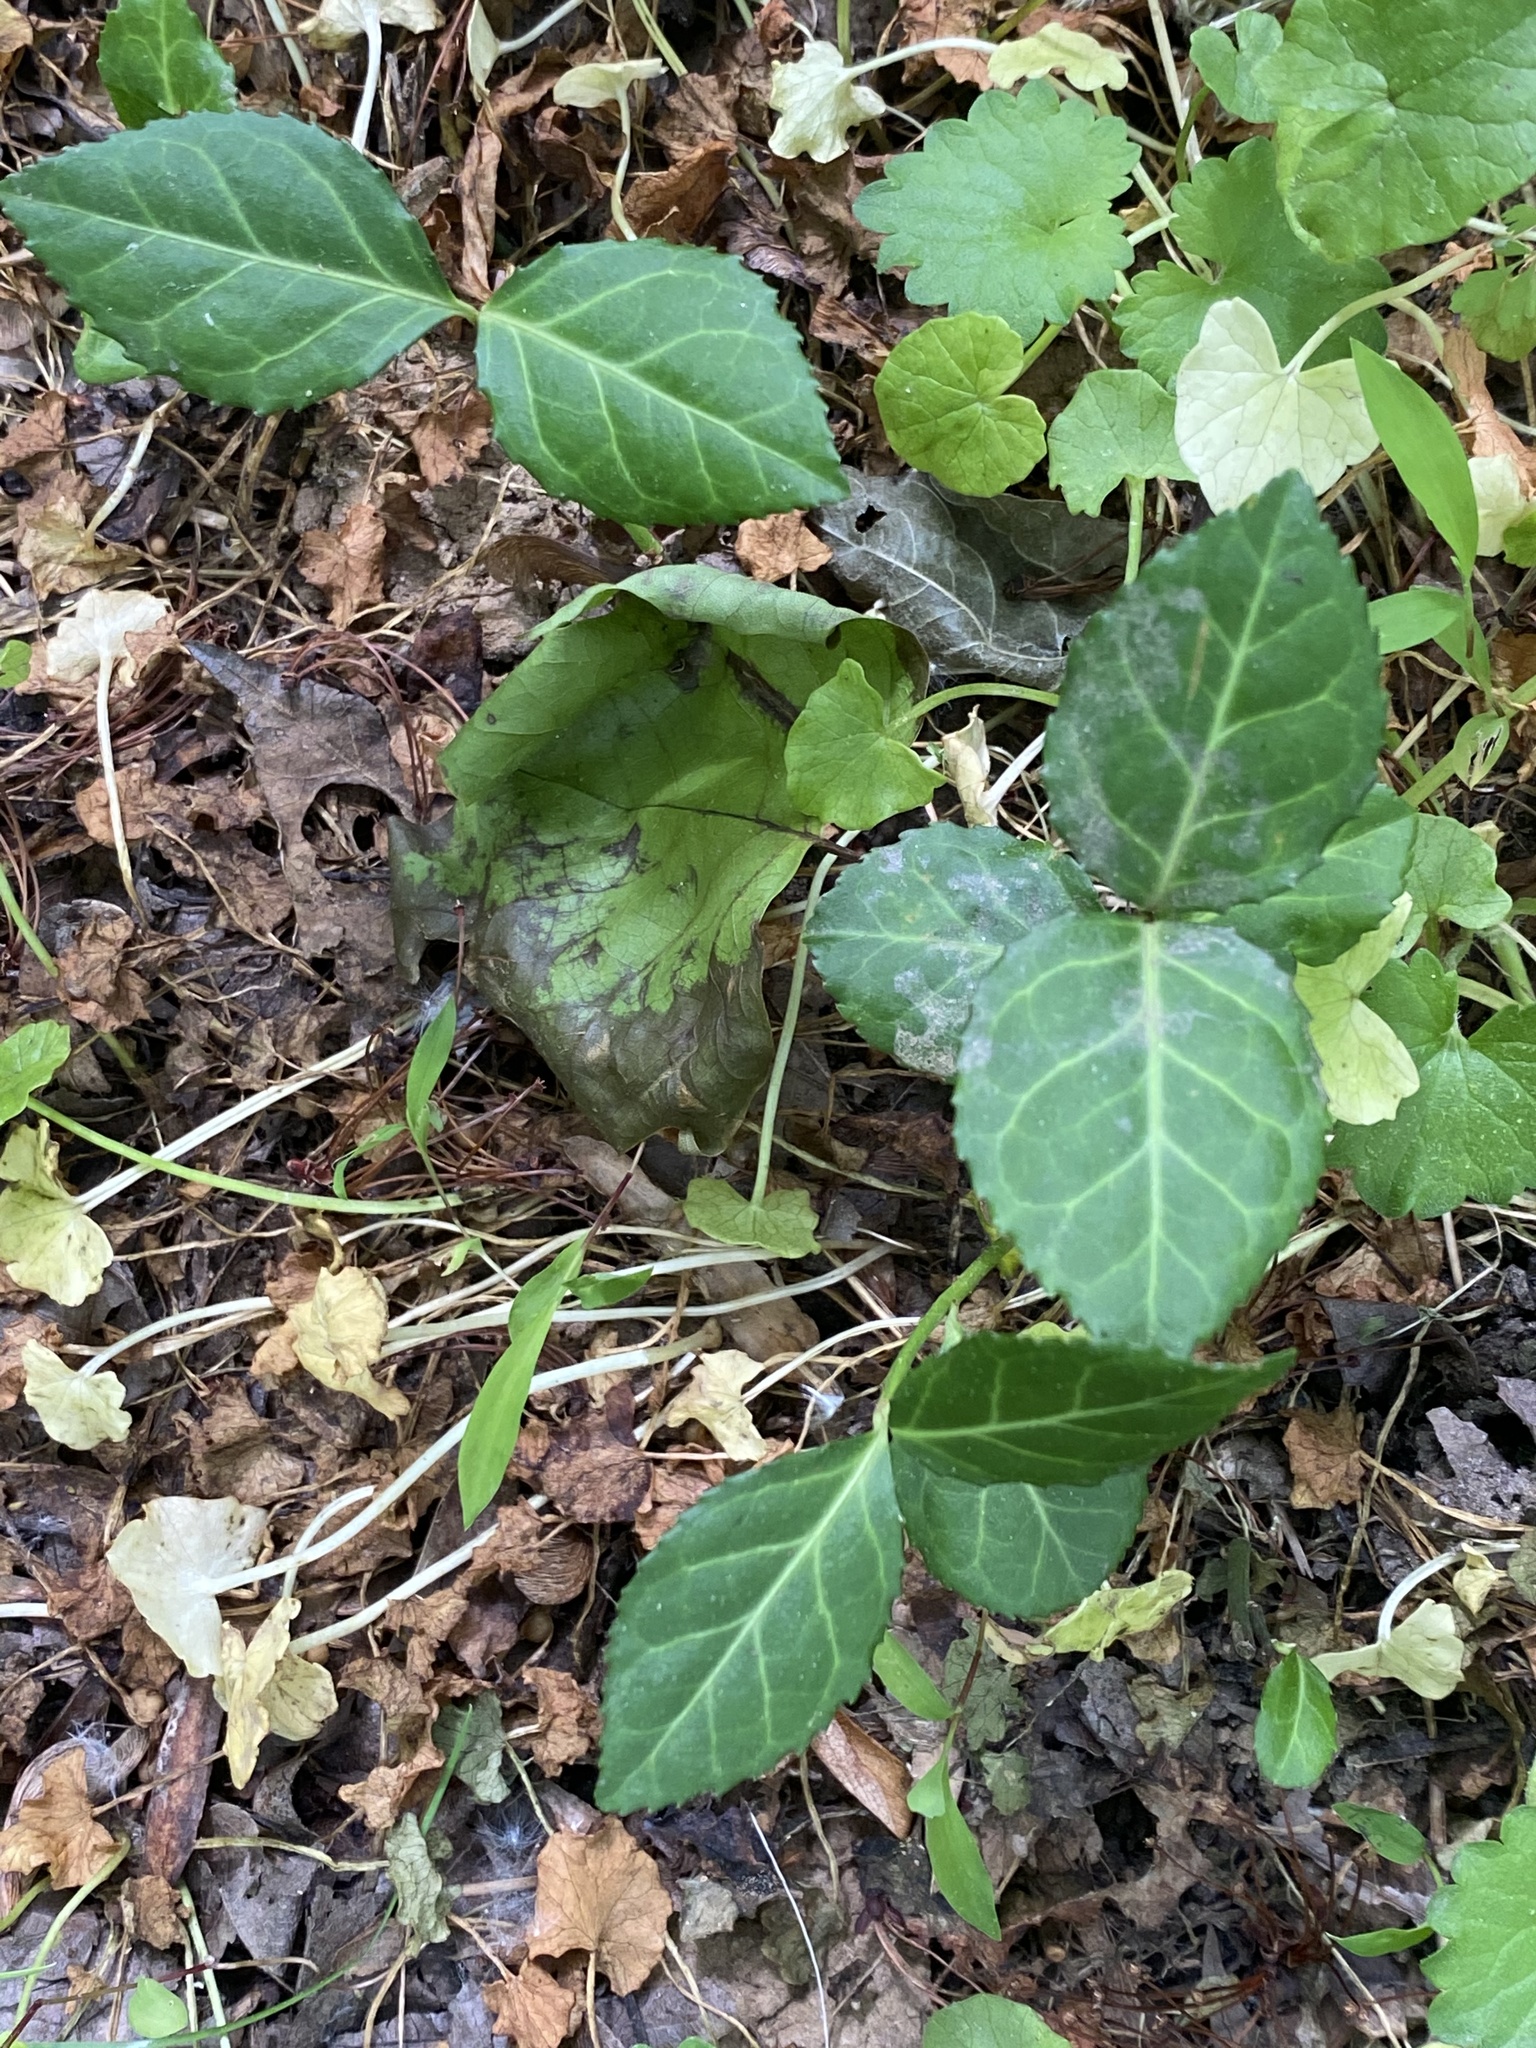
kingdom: Plantae
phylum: Tracheophyta
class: Magnoliopsida
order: Celastrales
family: Celastraceae
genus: Euonymus
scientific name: Euonymus fortunei
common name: Climbing euonymus
